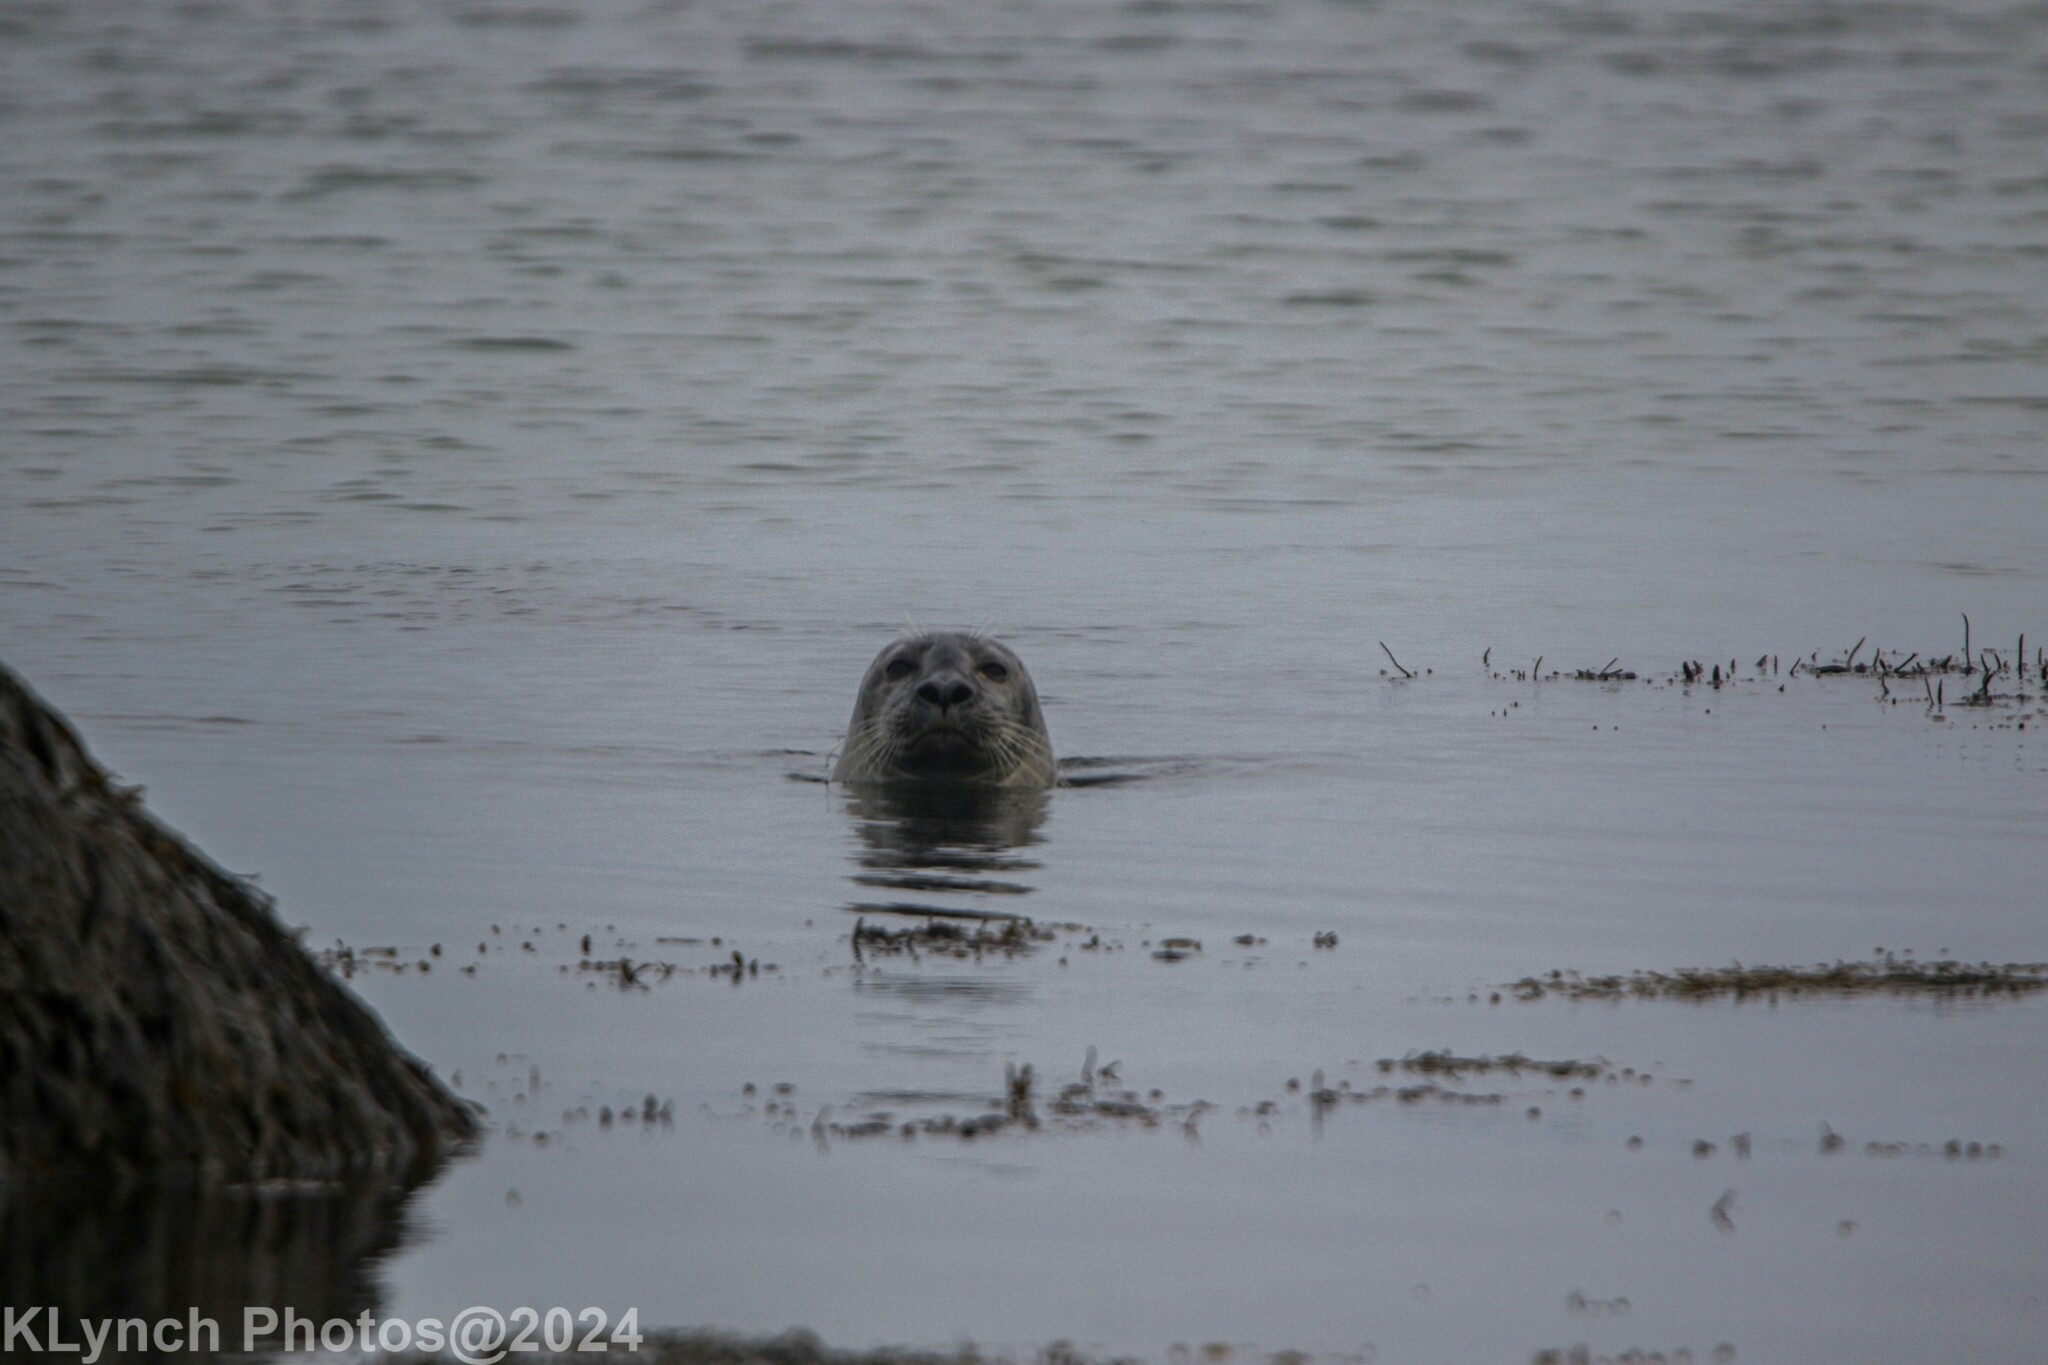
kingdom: Animalia
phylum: Chordata
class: Mammalia
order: Carnivora
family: Phocidae
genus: Phoca
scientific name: Phoca vitulina
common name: Harbor seal
